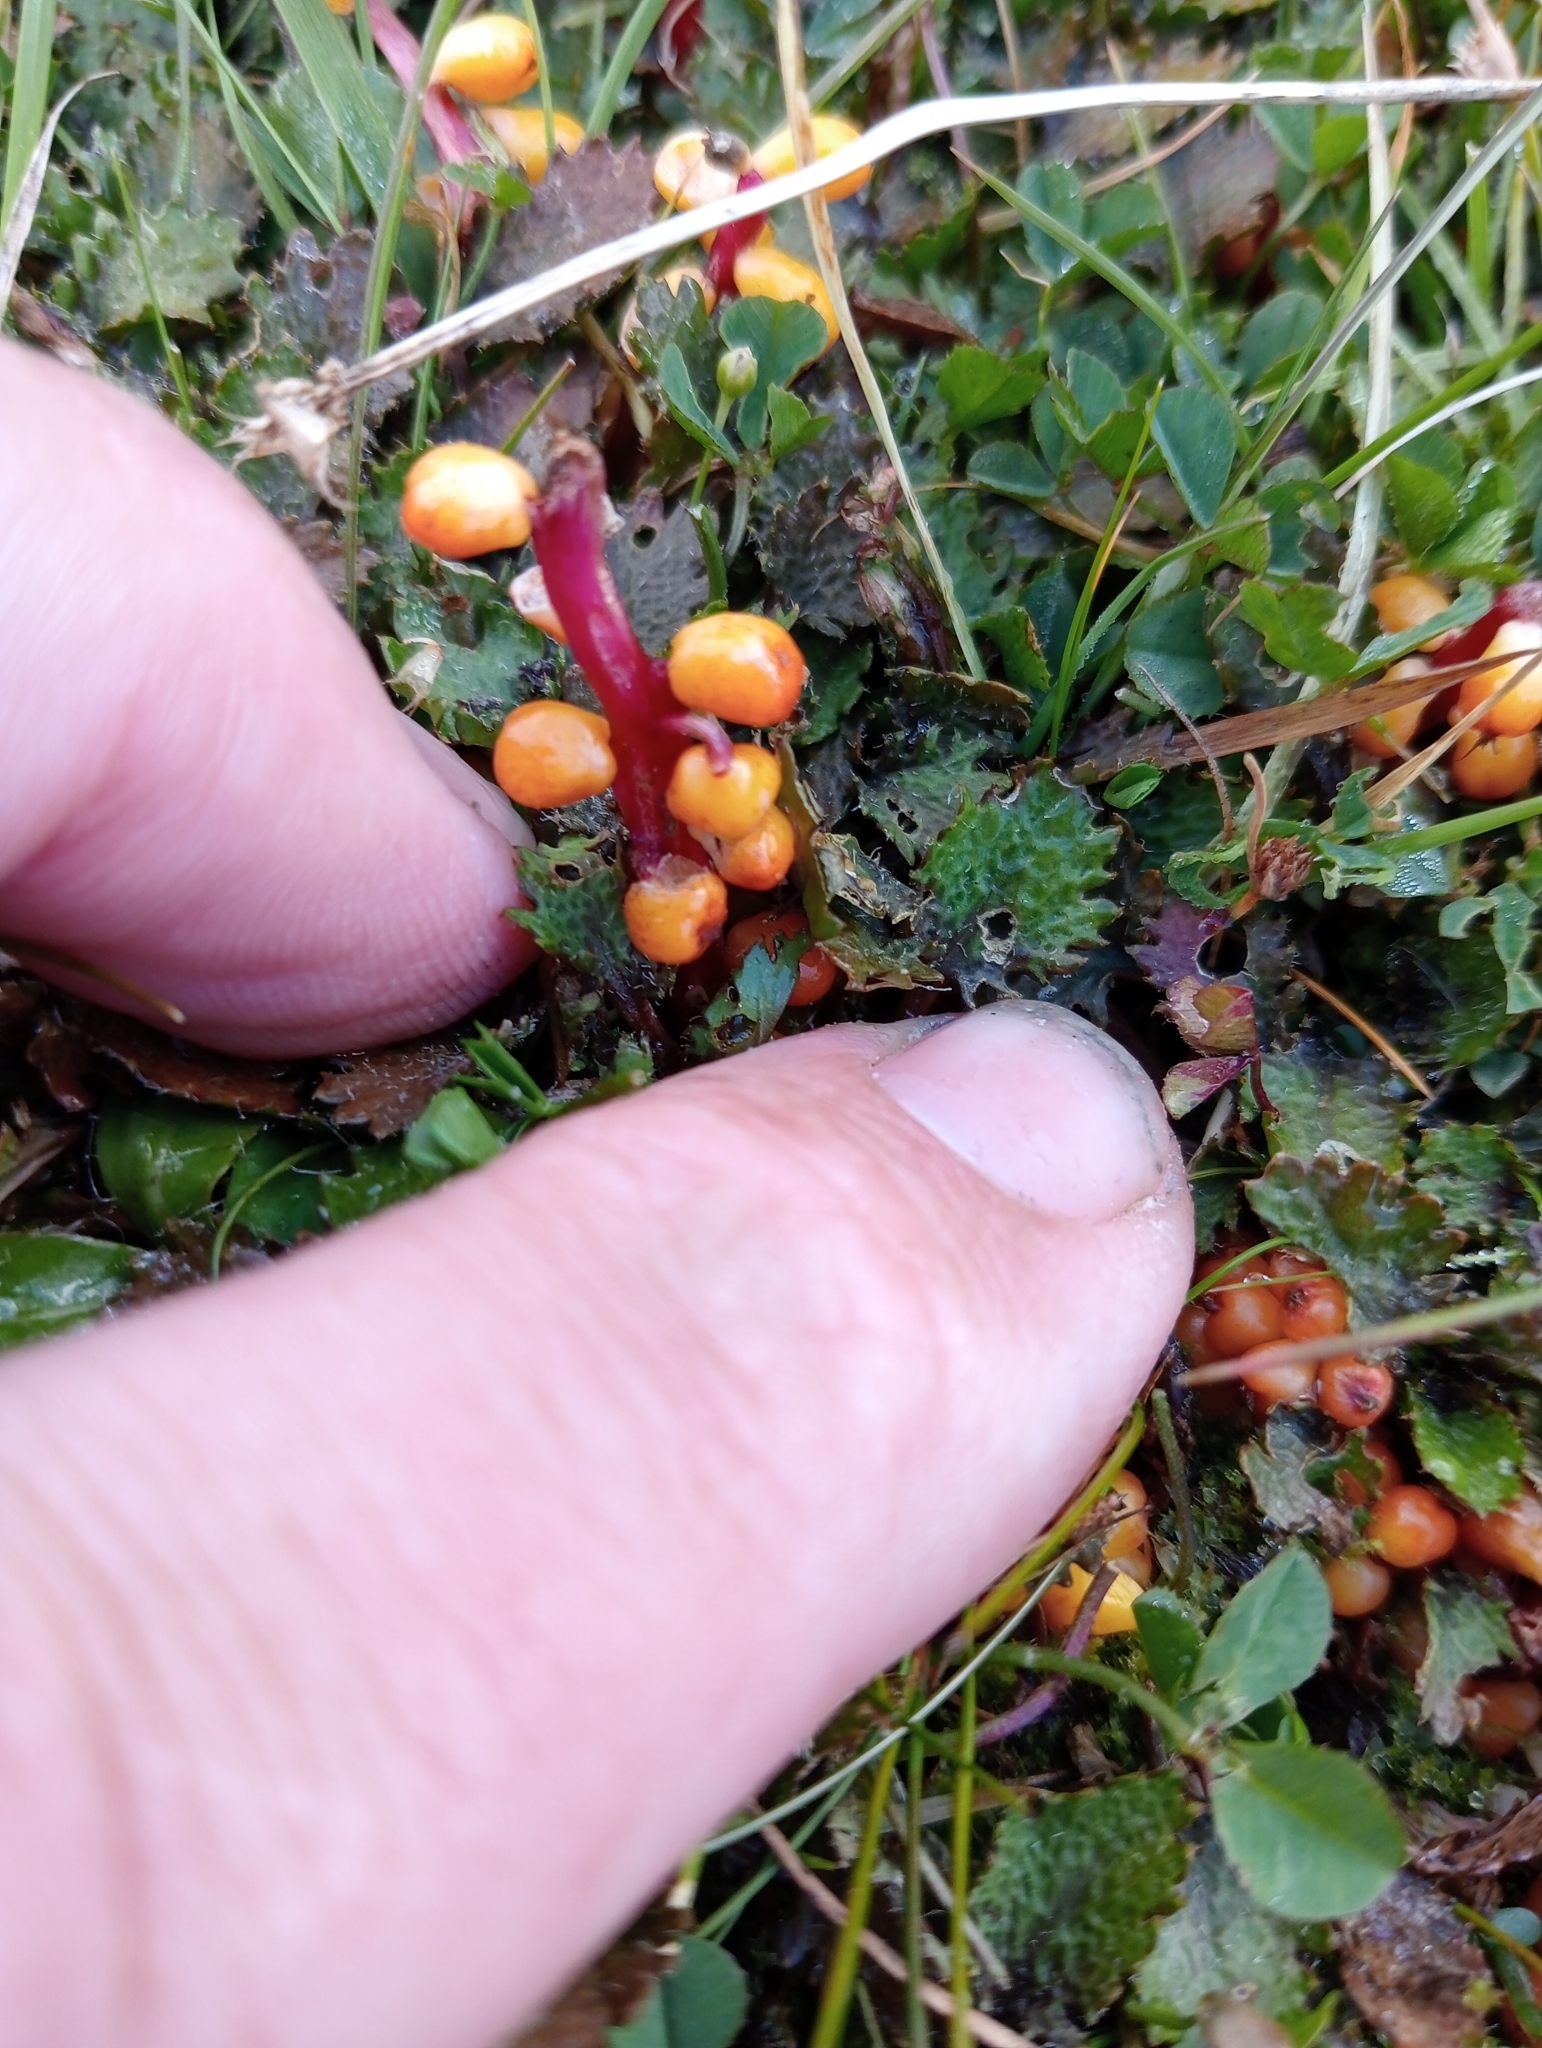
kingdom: Plantae
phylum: Tracheophyta
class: Magnoliopsida
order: Gunnerales
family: Gunneraceae
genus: Gunnera
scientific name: Gunnera dentata
